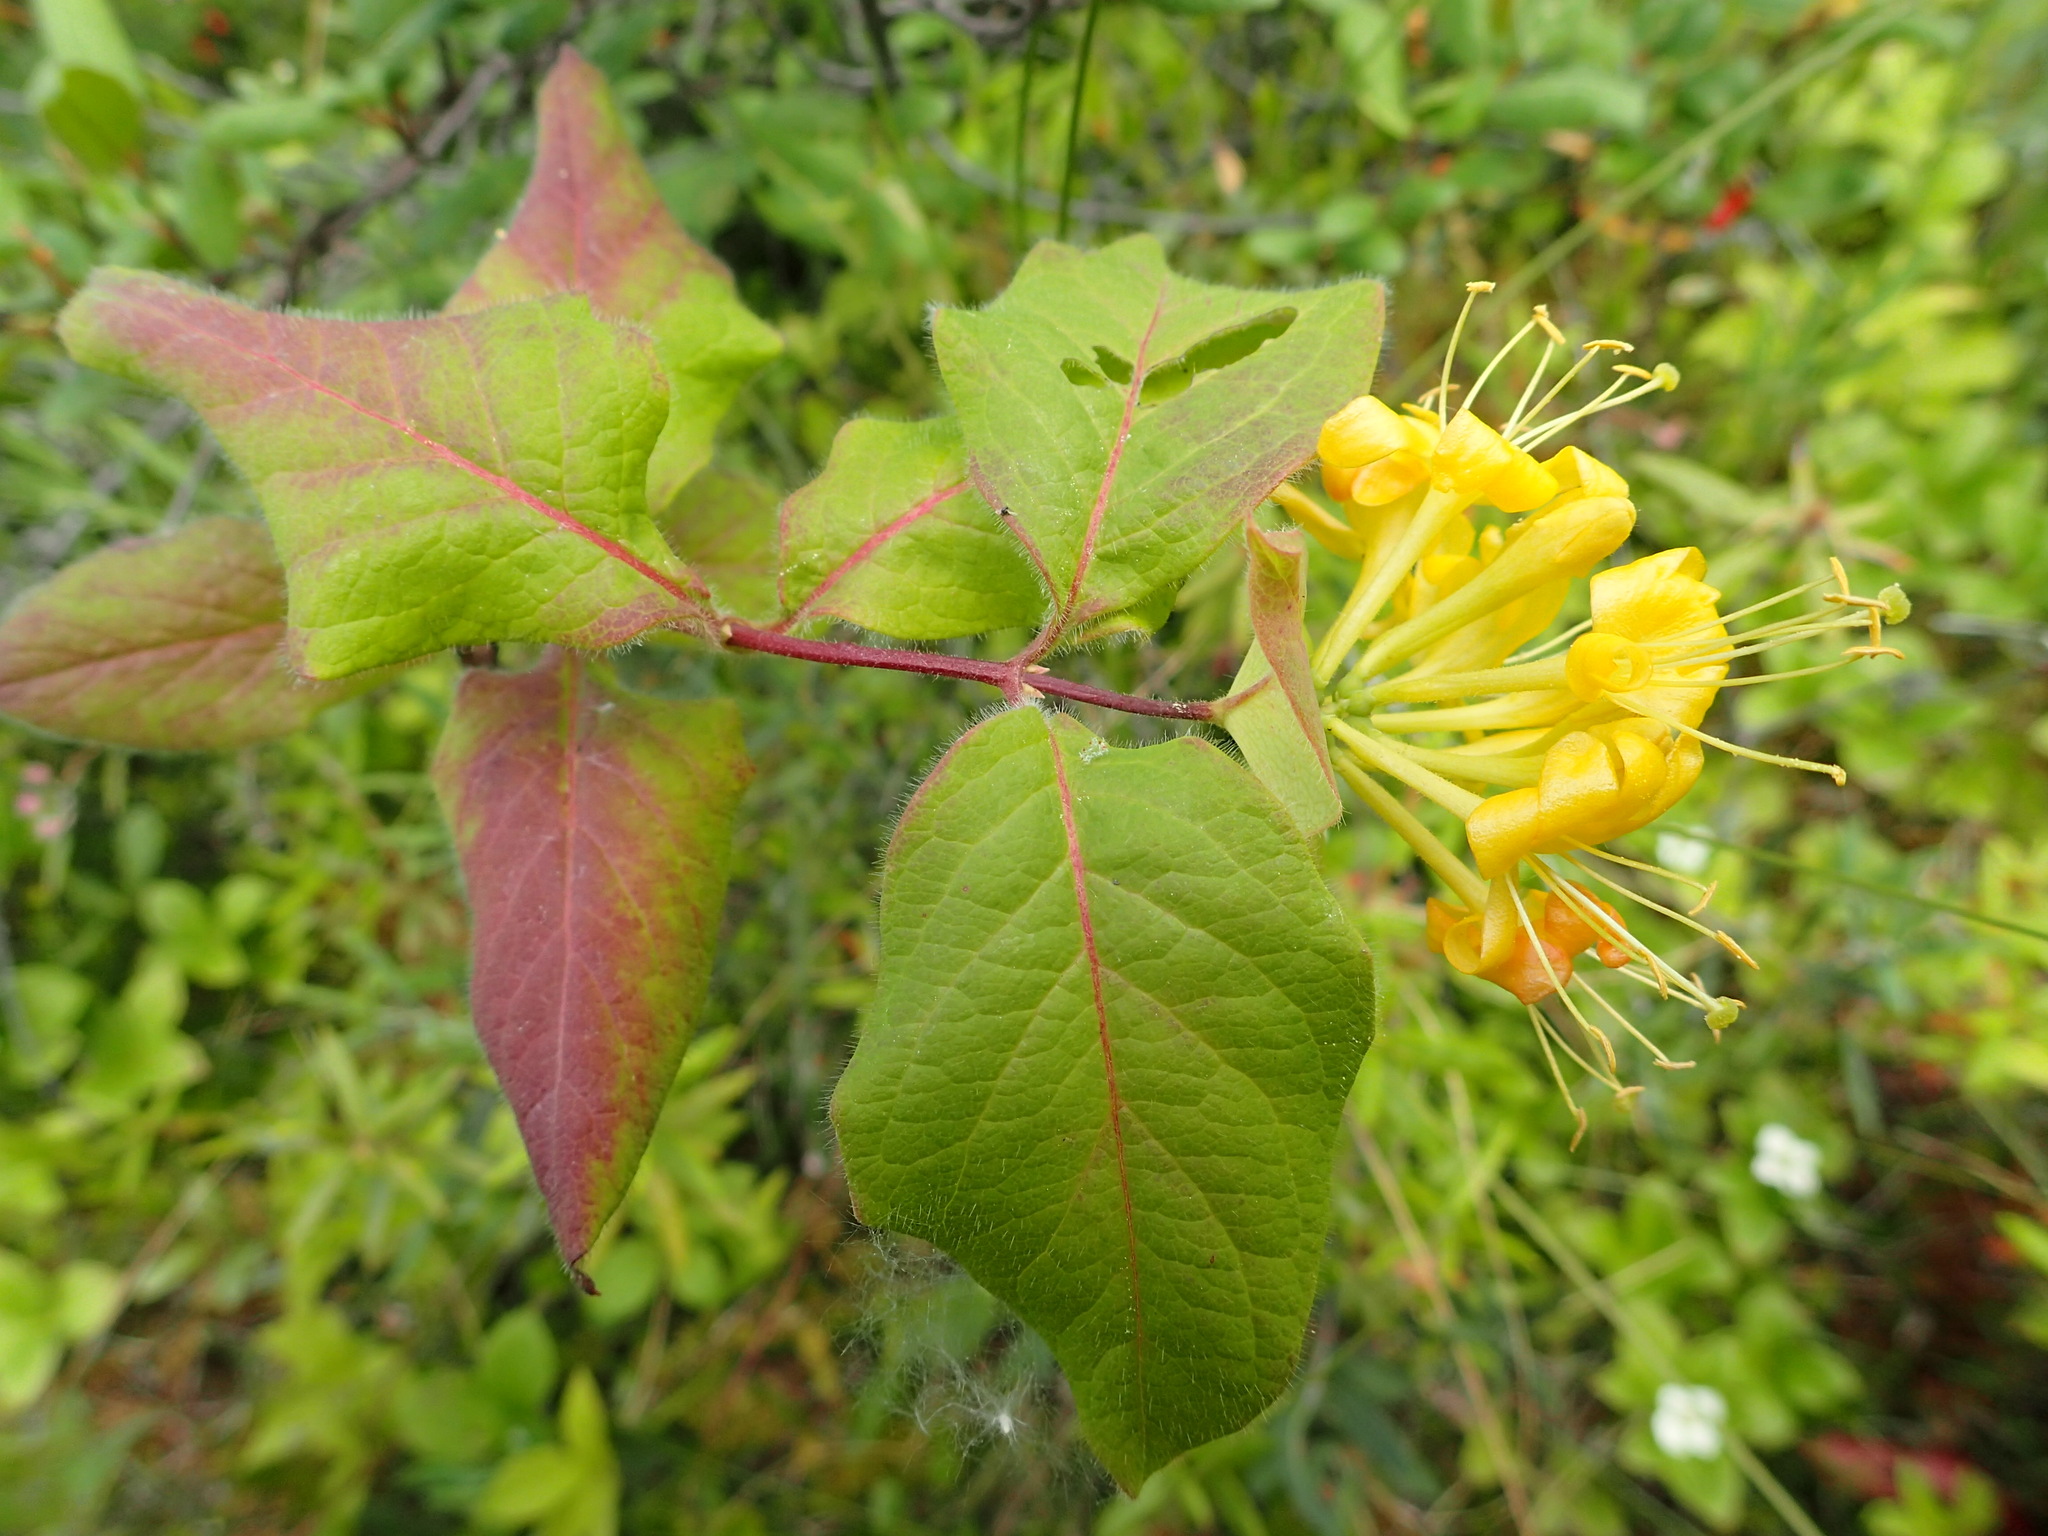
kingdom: Plantae
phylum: Tracheophyta
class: Magnoliopsida
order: Dipsacales
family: Caprifoliaceae
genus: Lonicera
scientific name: Lonicera hirsuta
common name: Hairy honeysuckle
